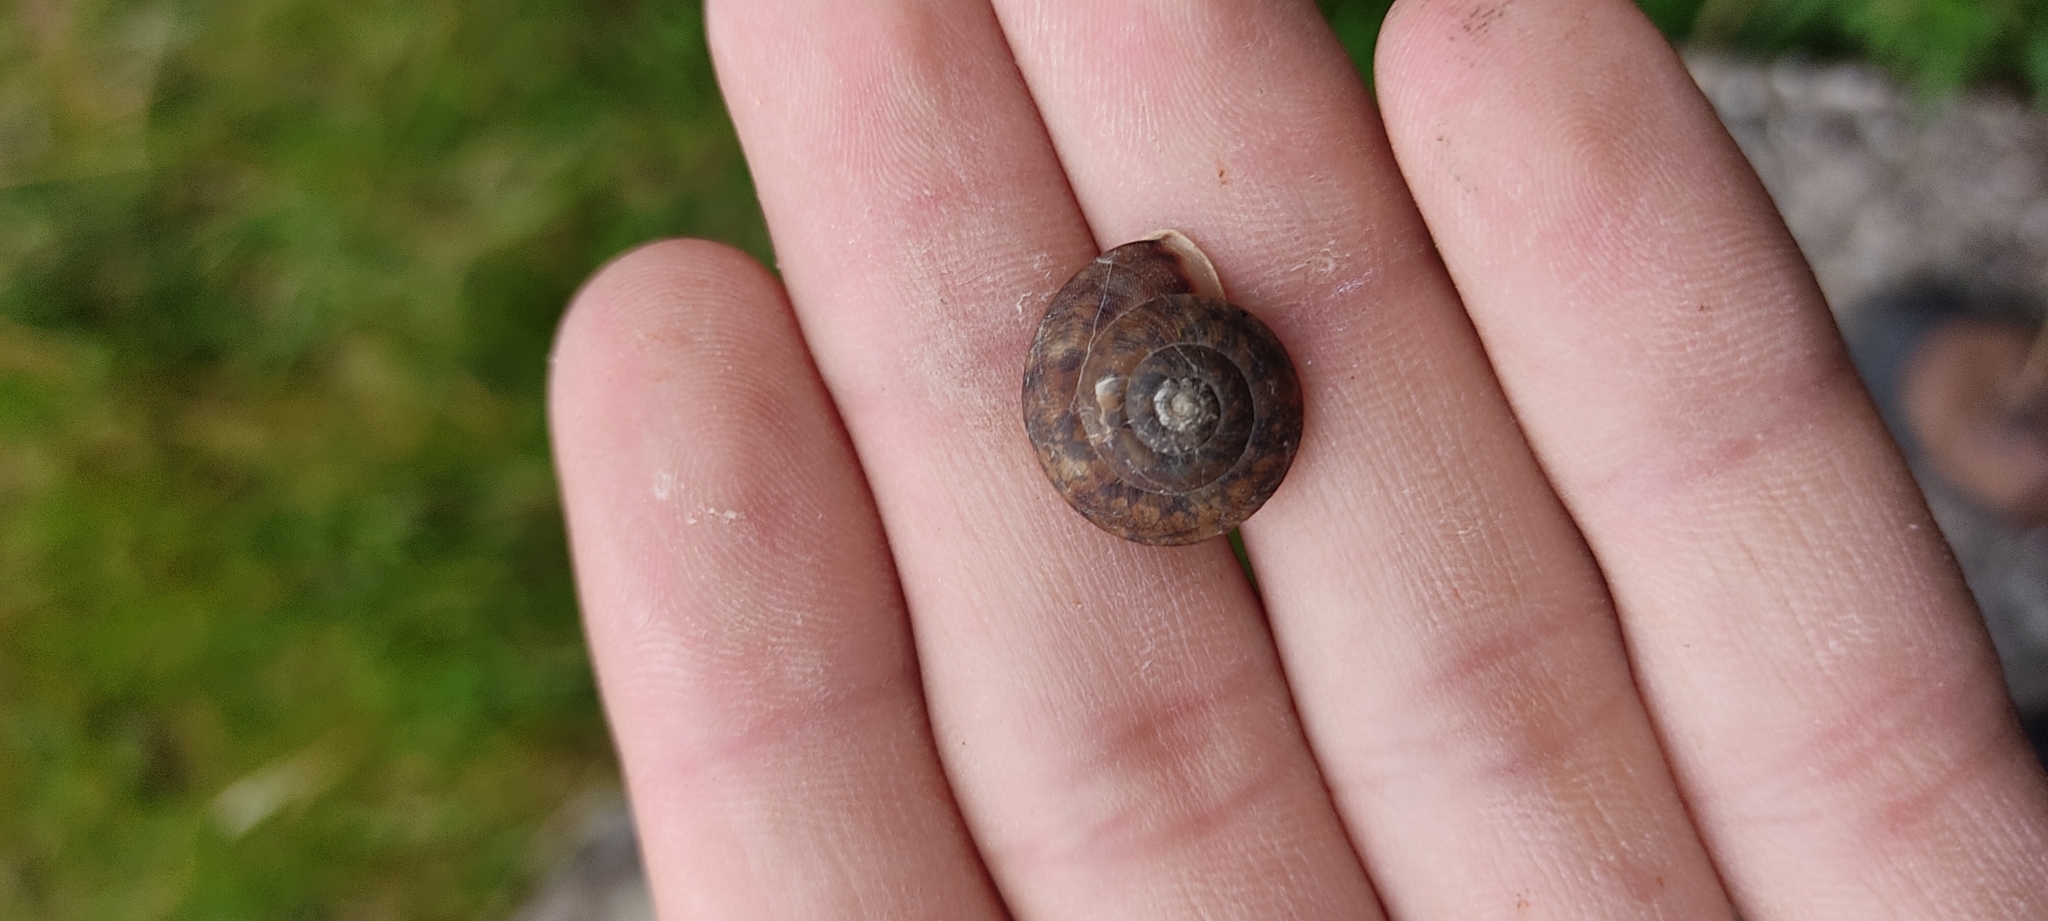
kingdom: Animalia
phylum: Mollusca
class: Gastropoda
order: Stylommatophora
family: Helicidae
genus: Helicigona
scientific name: Helicigona lapicida
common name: Lapidary snail
